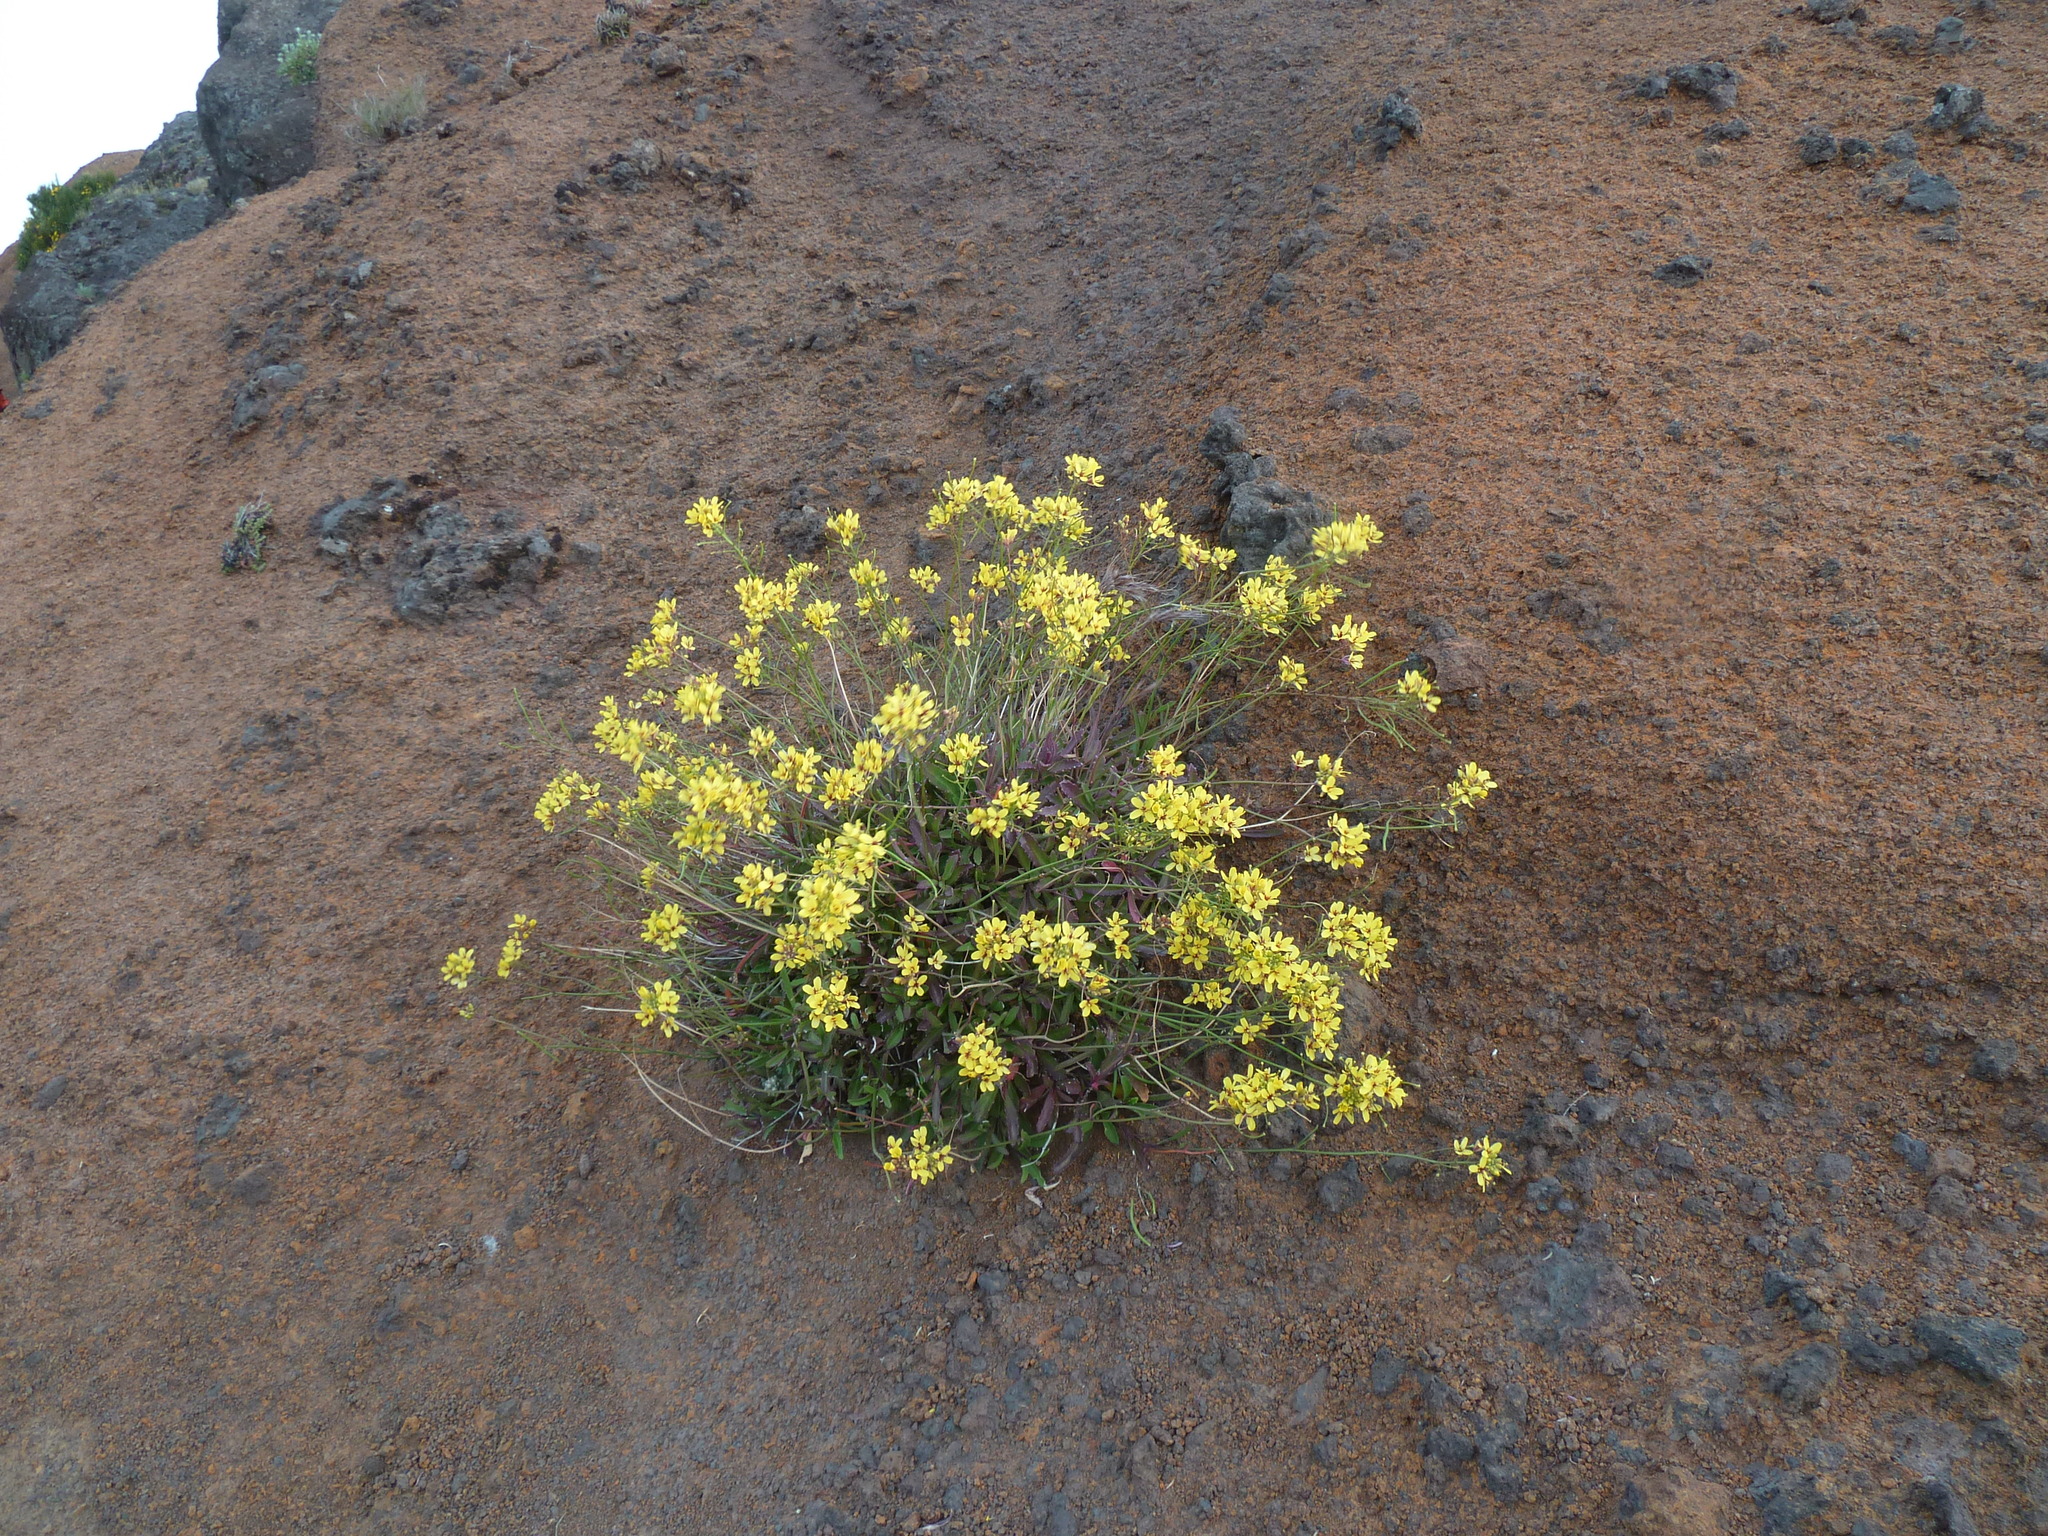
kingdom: Plantae
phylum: Tracheophyta
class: Magnoliopsida
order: Brassicales
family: Brassicaceae
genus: Sinapidendron
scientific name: Sinapidendron frutescens
